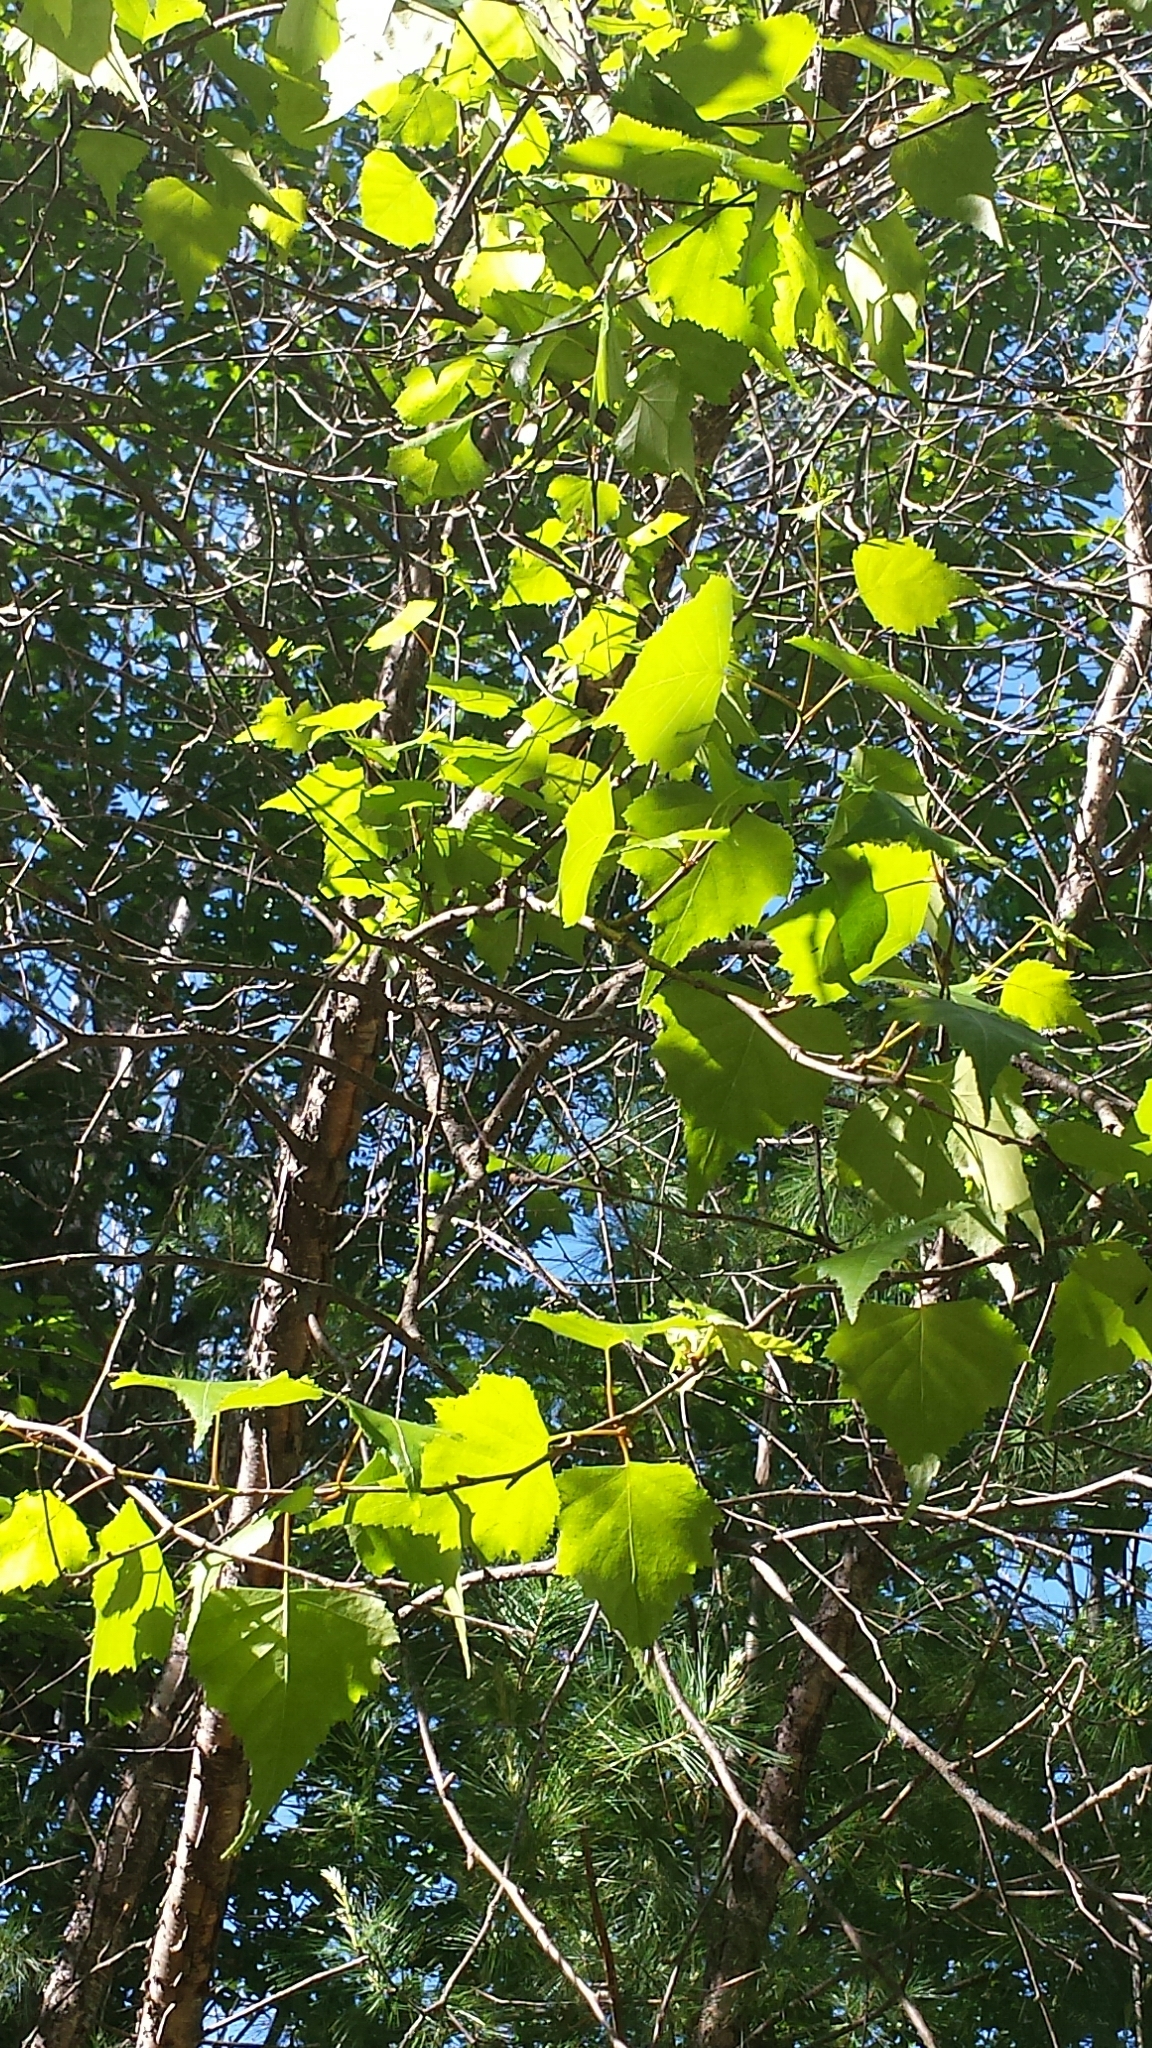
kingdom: Plantae
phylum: Tracheophyta
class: Magnoliopsida
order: Fagales
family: Betulaceae
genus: Betula
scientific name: Betula populifolia
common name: Fire birch
